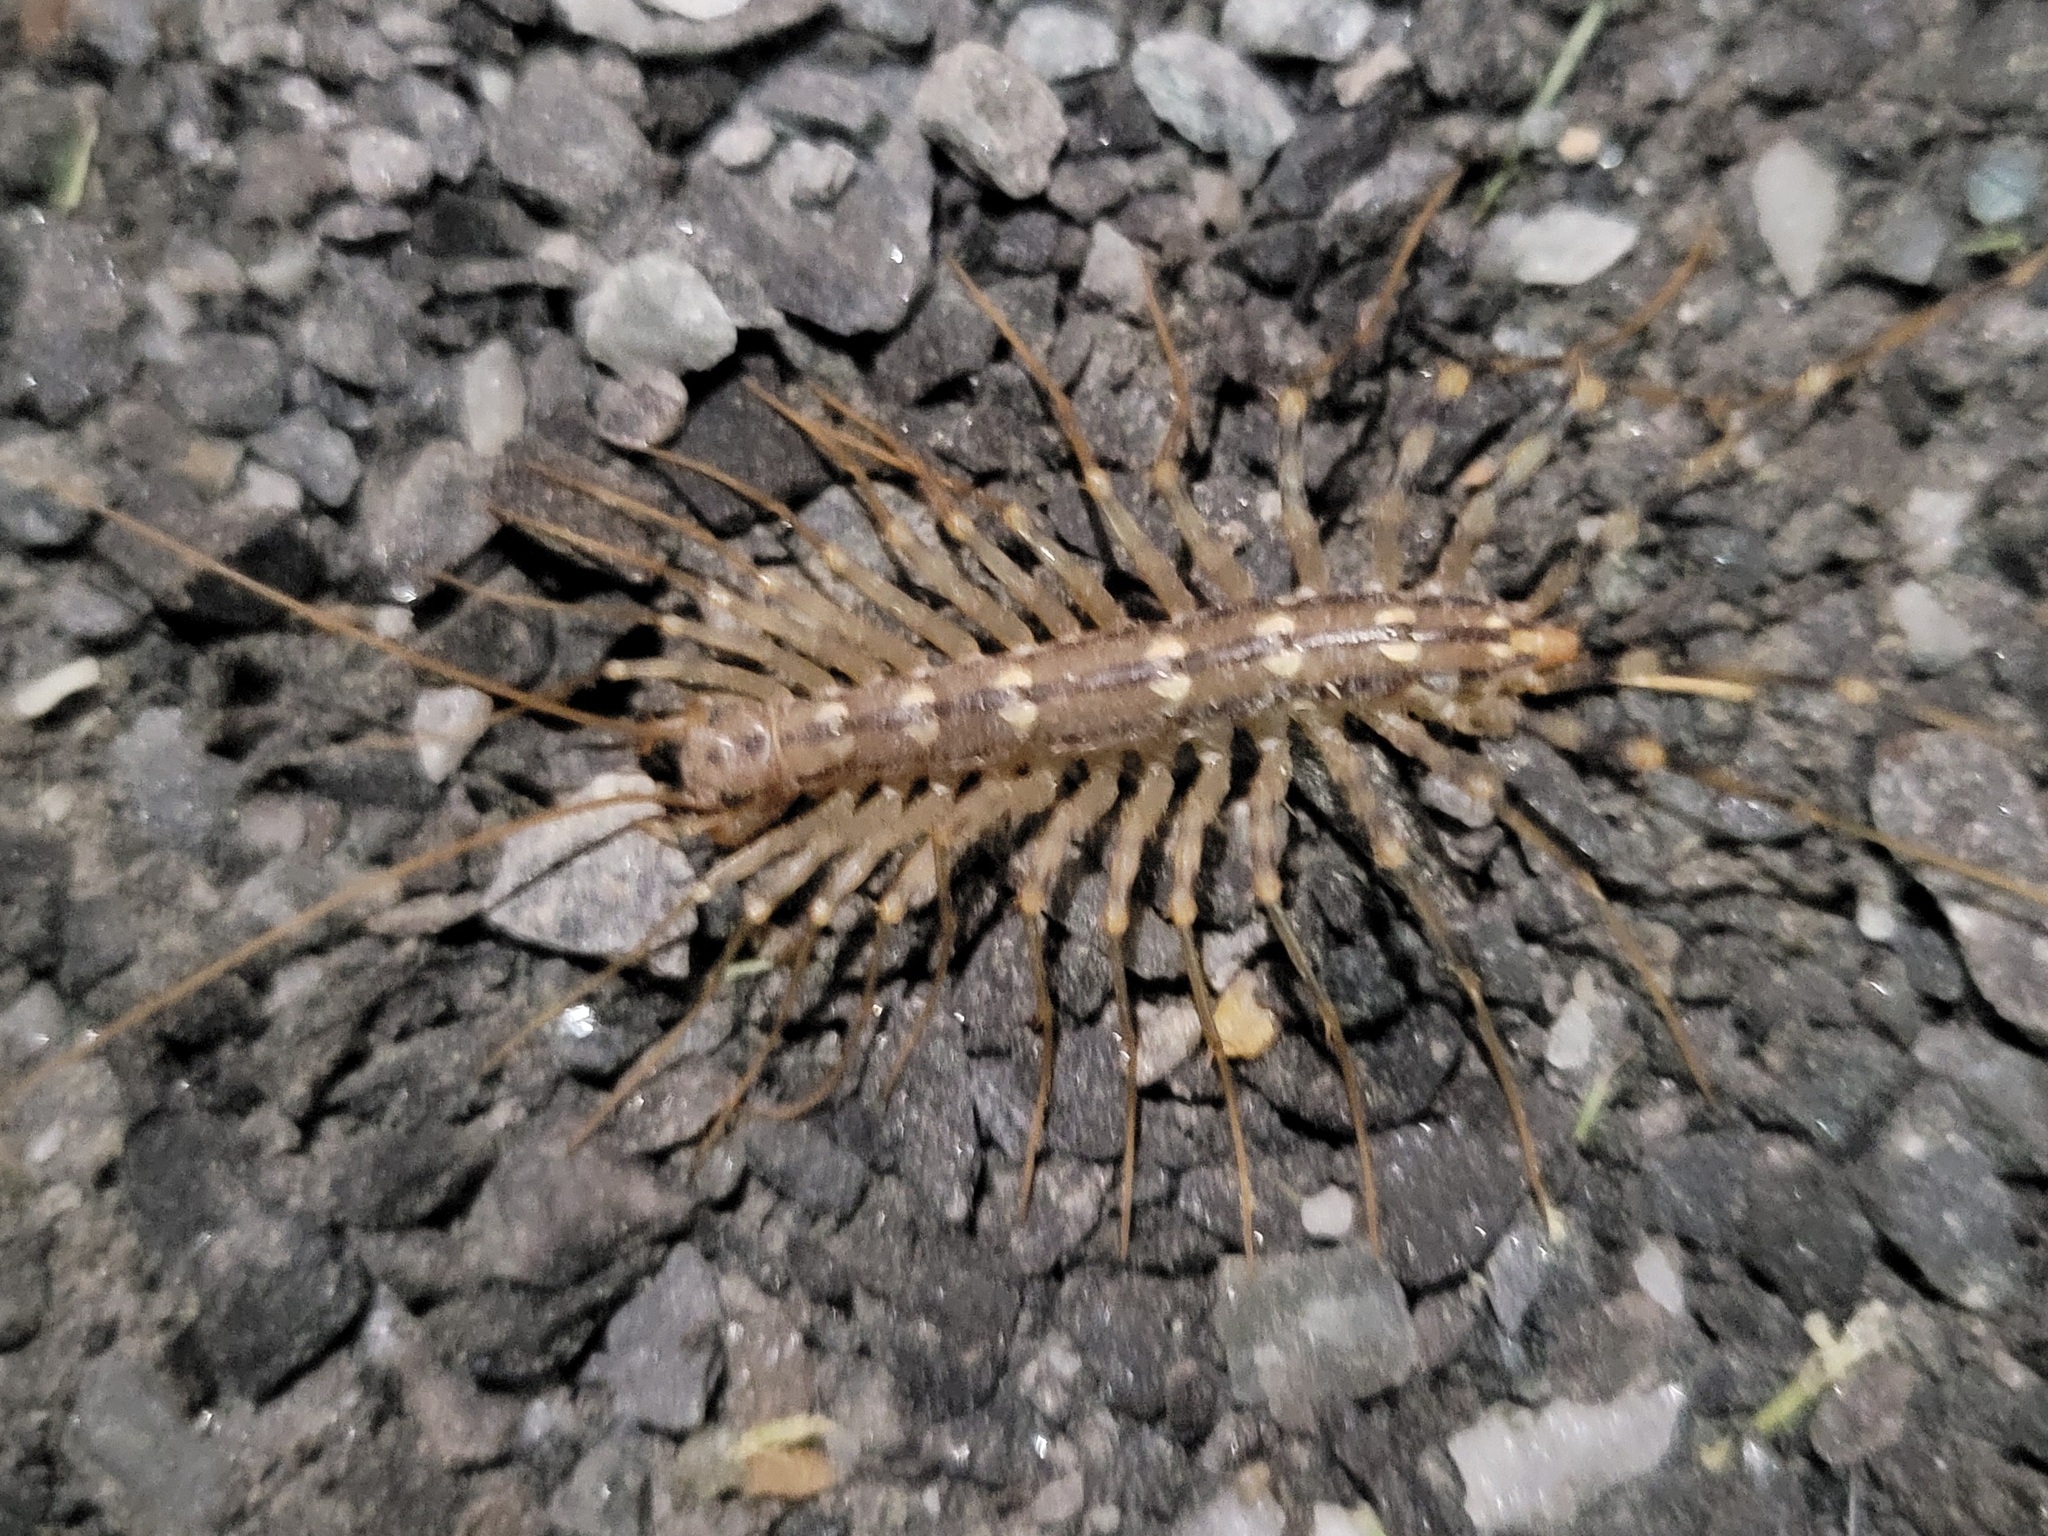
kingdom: Animalia
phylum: Arthropoda
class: Chilopoda
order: Scutigeromorpha
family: Scutigeridae
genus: Scutigera
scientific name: Scutigera coleoptrata
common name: House centipede
